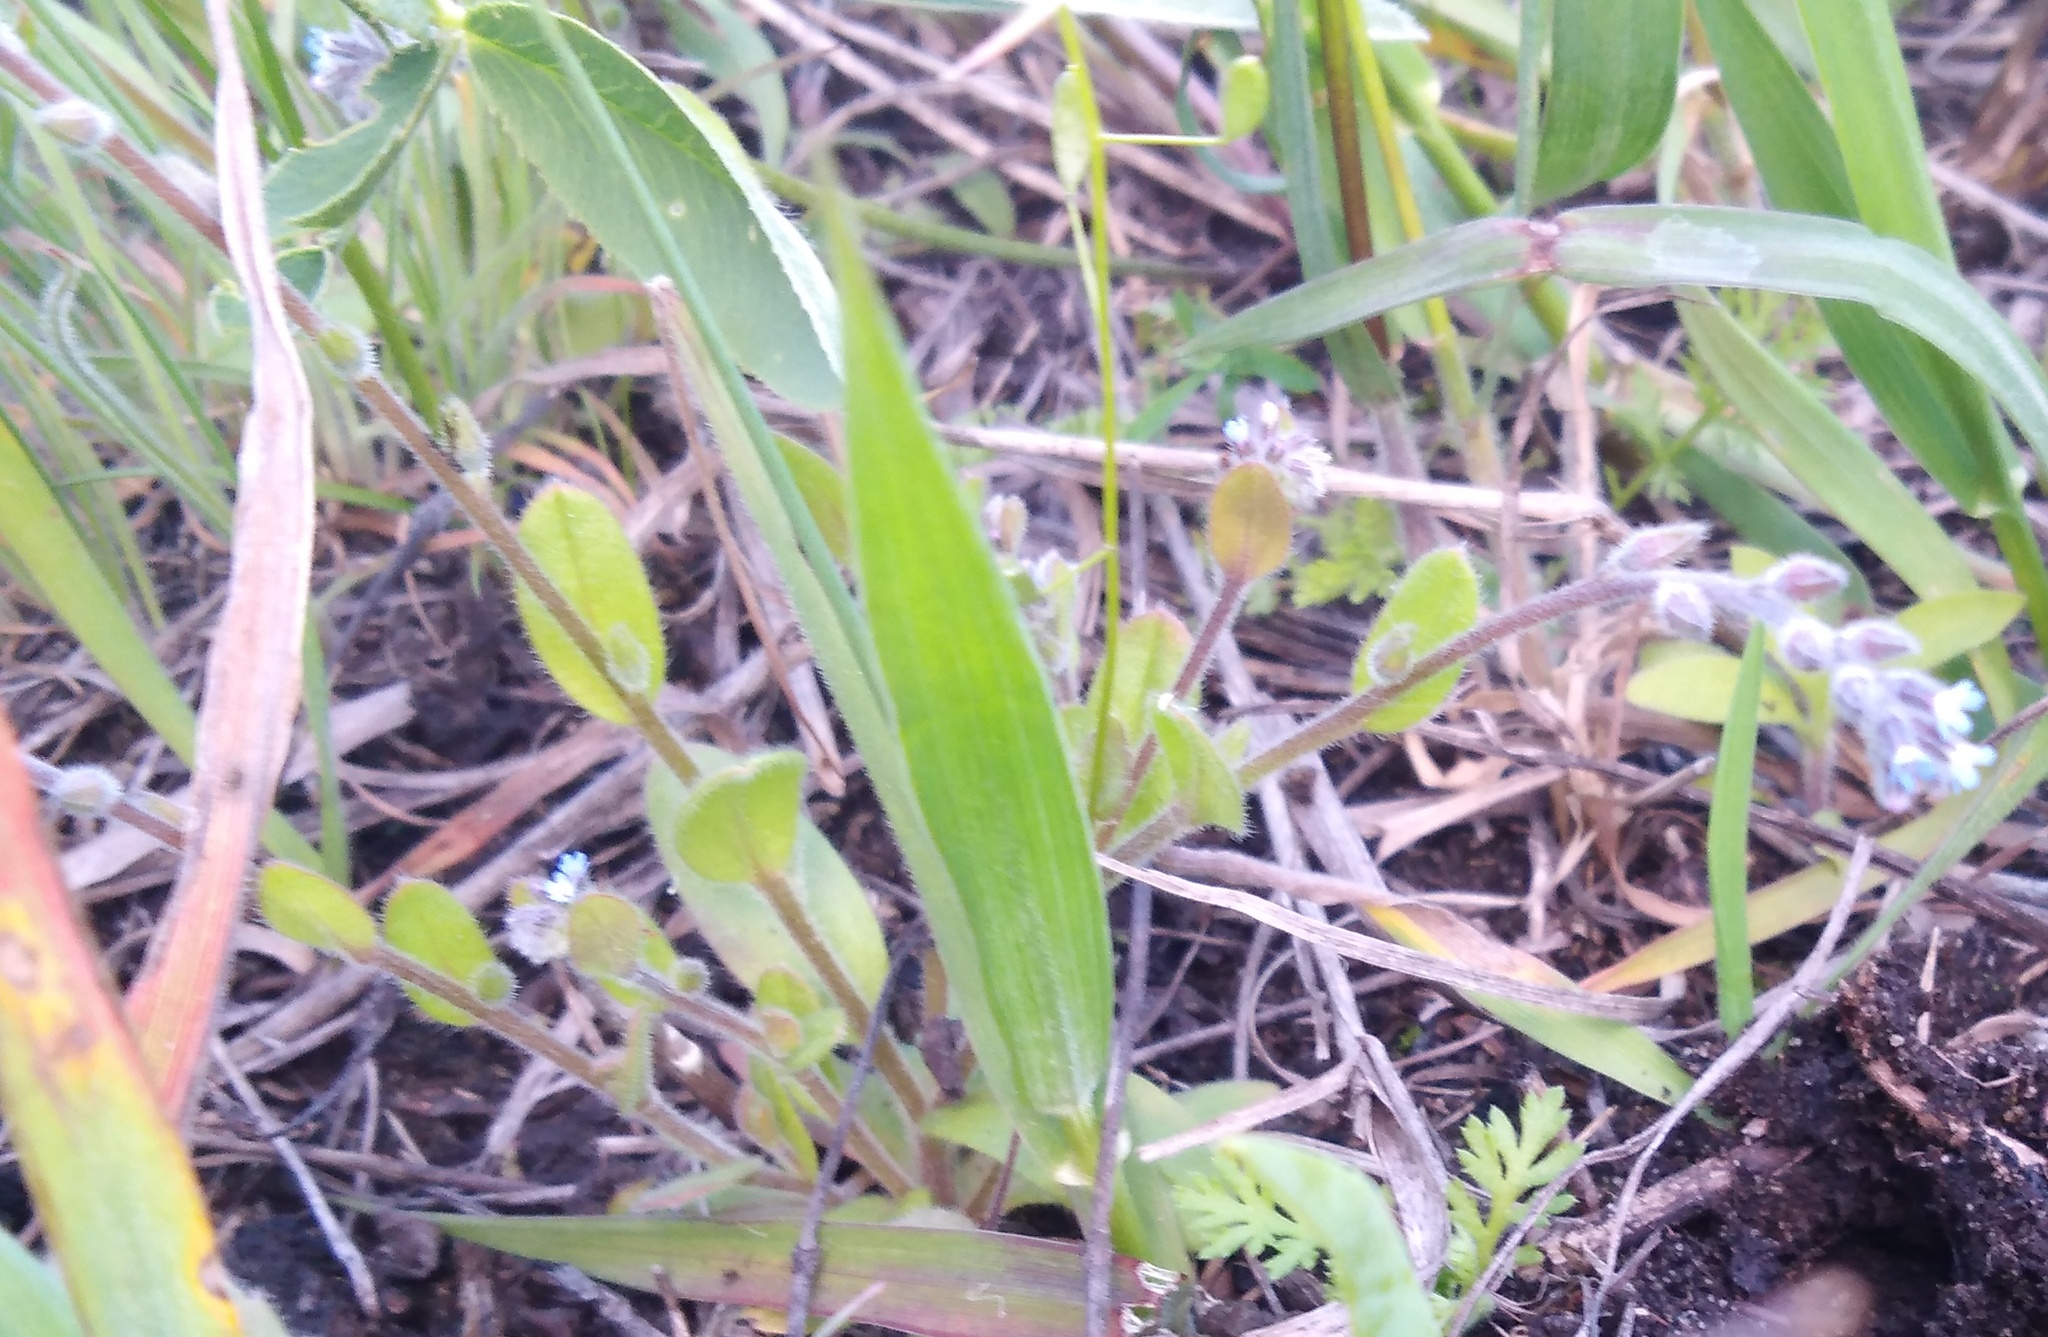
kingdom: Plantae
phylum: Tracheophyta
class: Magnoliopsida
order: Boraginales
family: Boraginaceae
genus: Myosotis
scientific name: Myosotis stricta
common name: Strict forget-me-not
